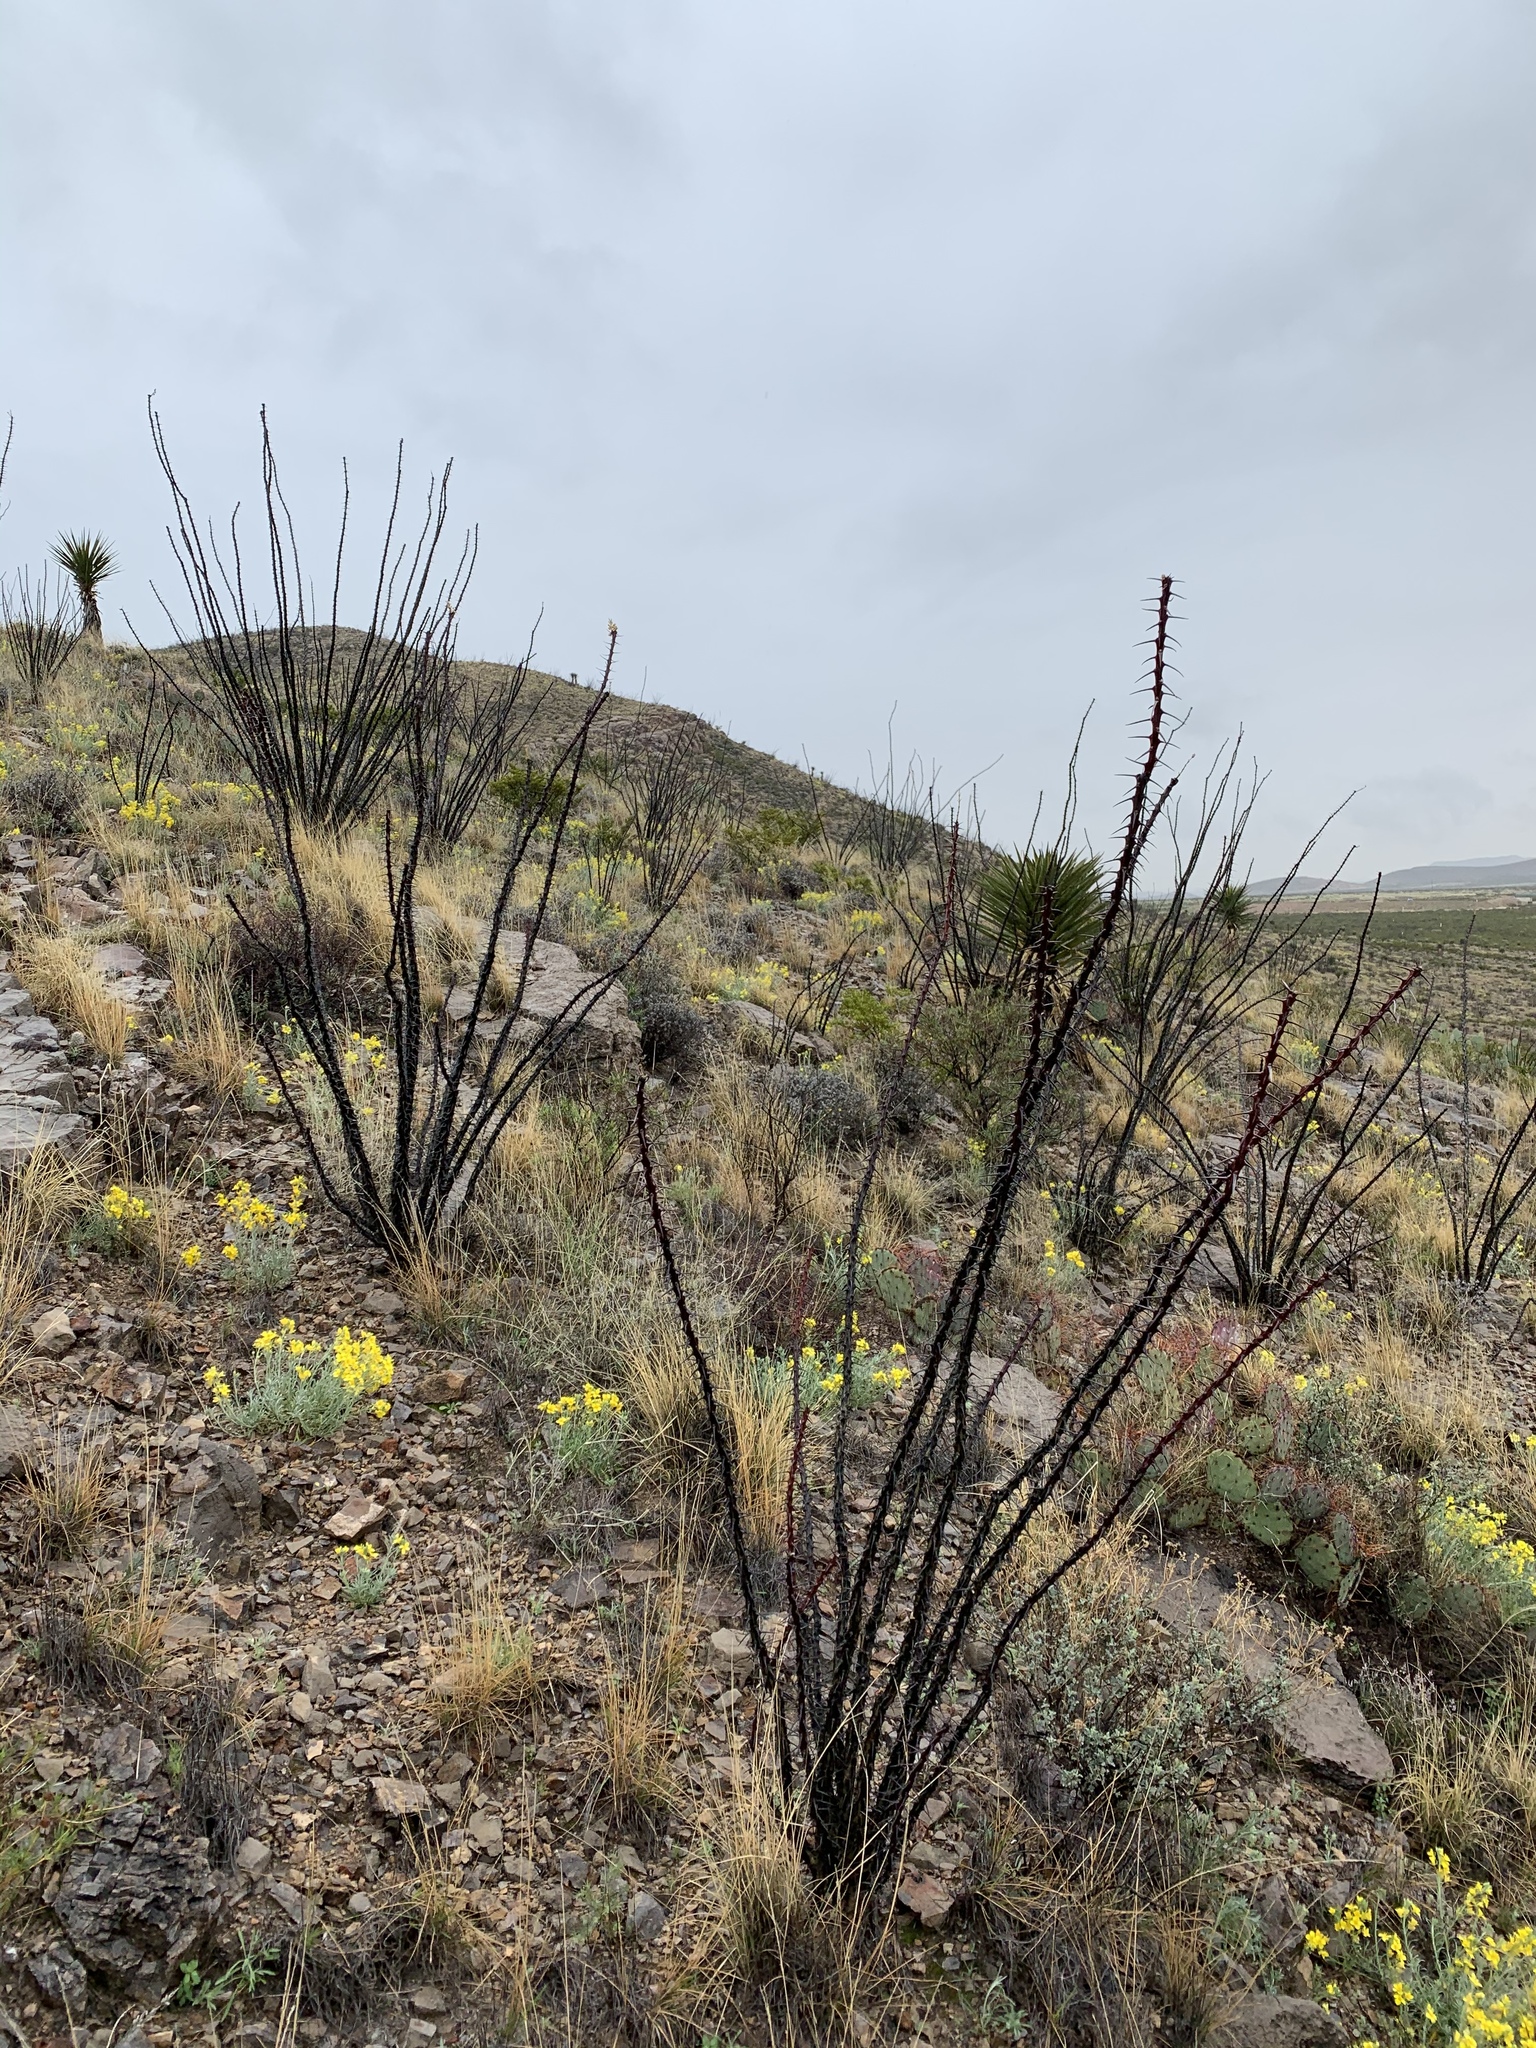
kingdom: Plantae
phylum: Tracheophyta
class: Magnoliopsida
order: Ericales
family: Fouquieriaceae
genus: Fouquieria
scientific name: Fouquieria splendens
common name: Vine-cactus
